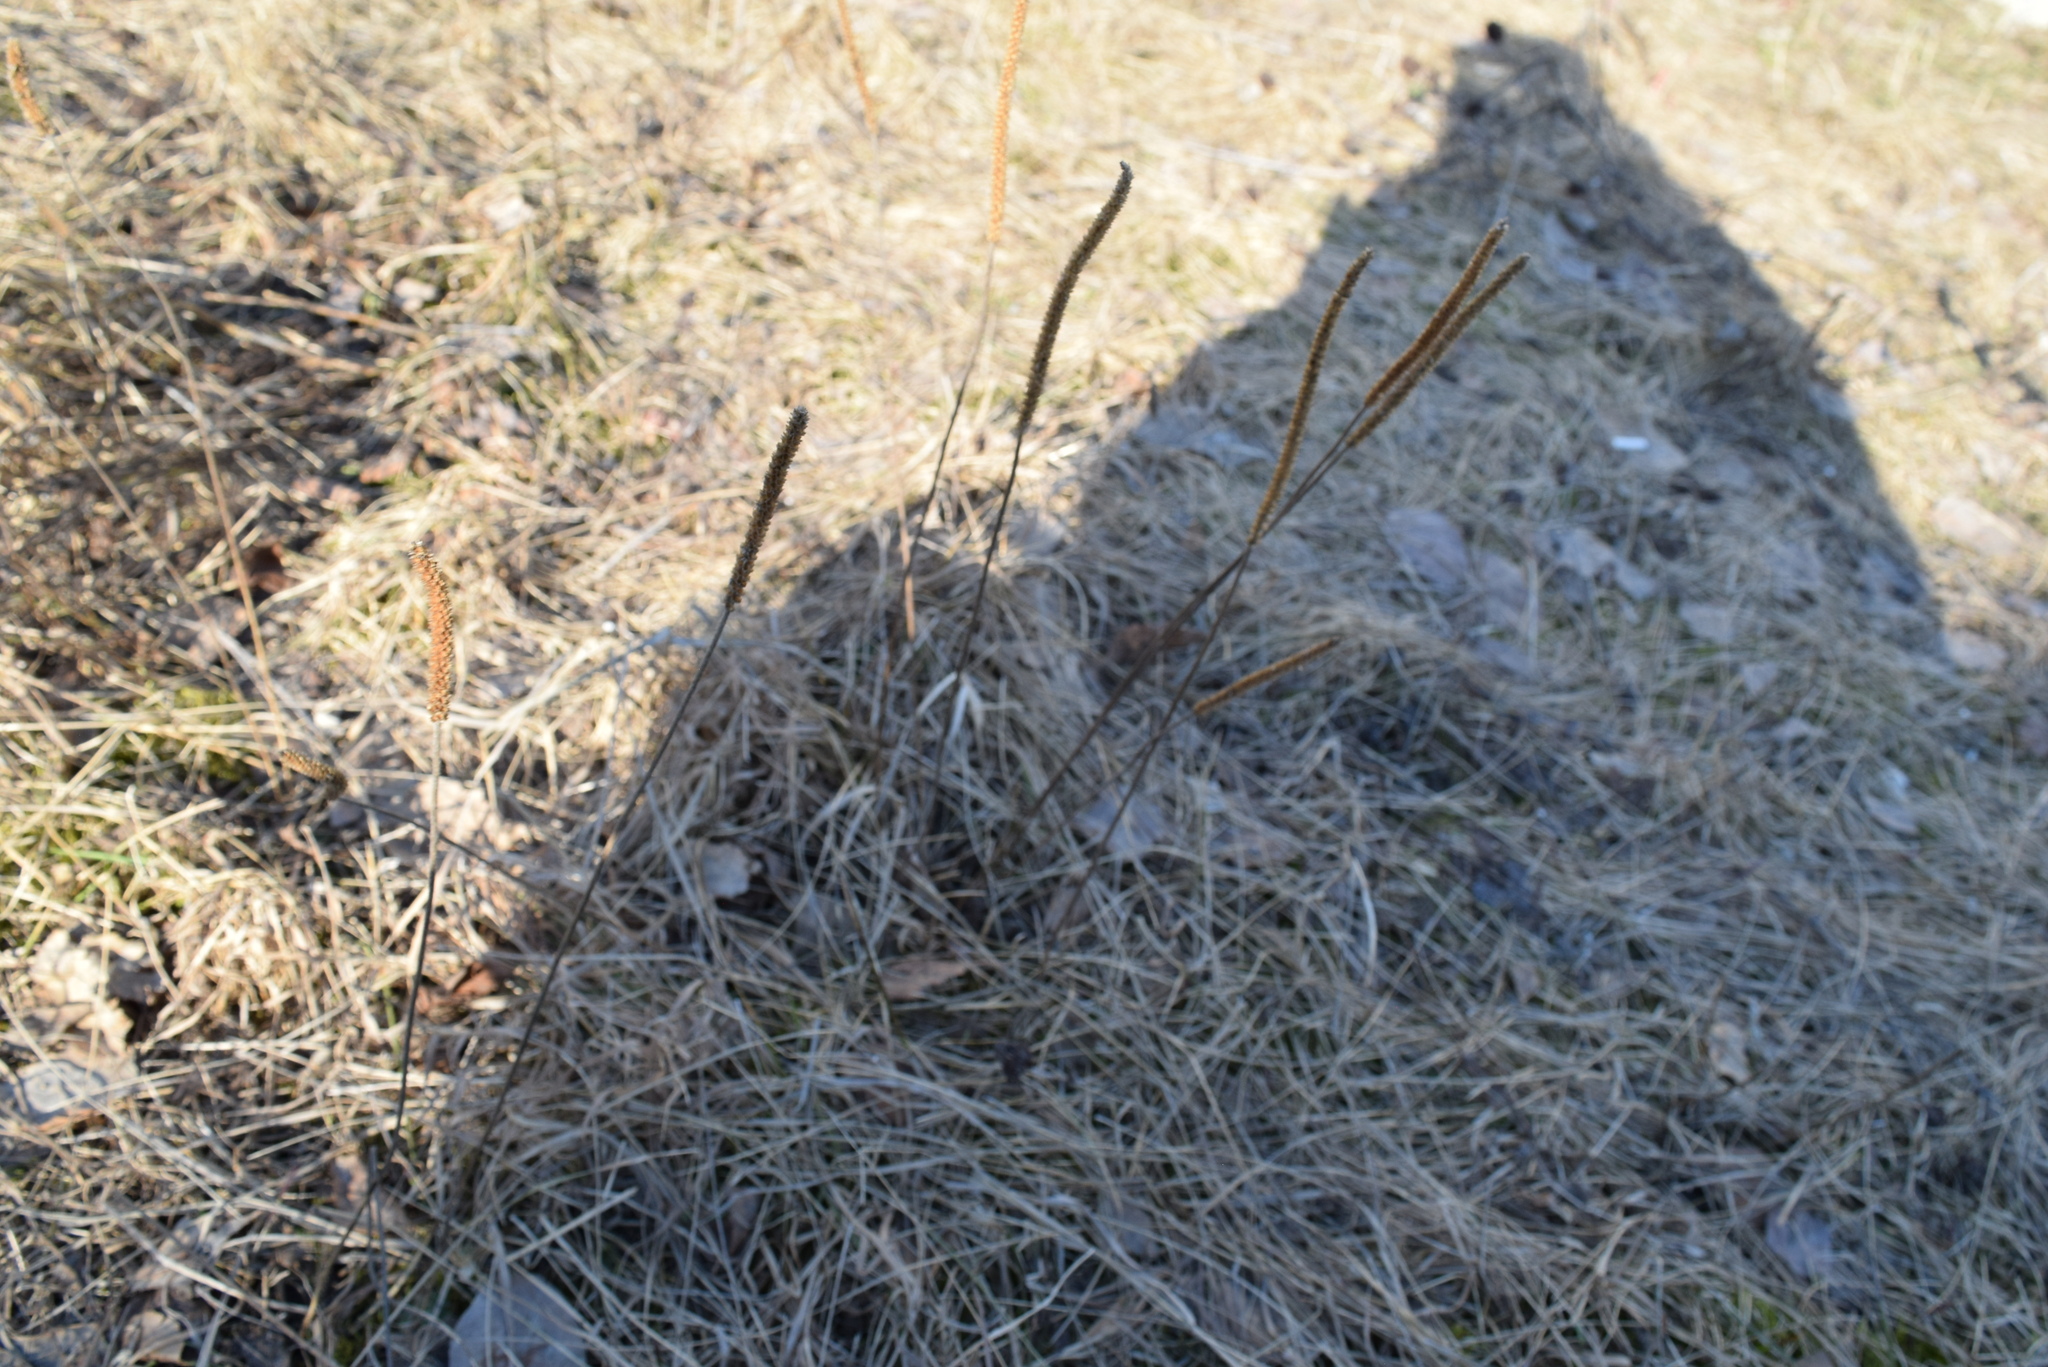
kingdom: Plantae
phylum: Tracheophyta
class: Magnoliopsida
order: Lamiales
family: Plantaginaceae
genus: Plantago
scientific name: Plantago major
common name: Common plantain
